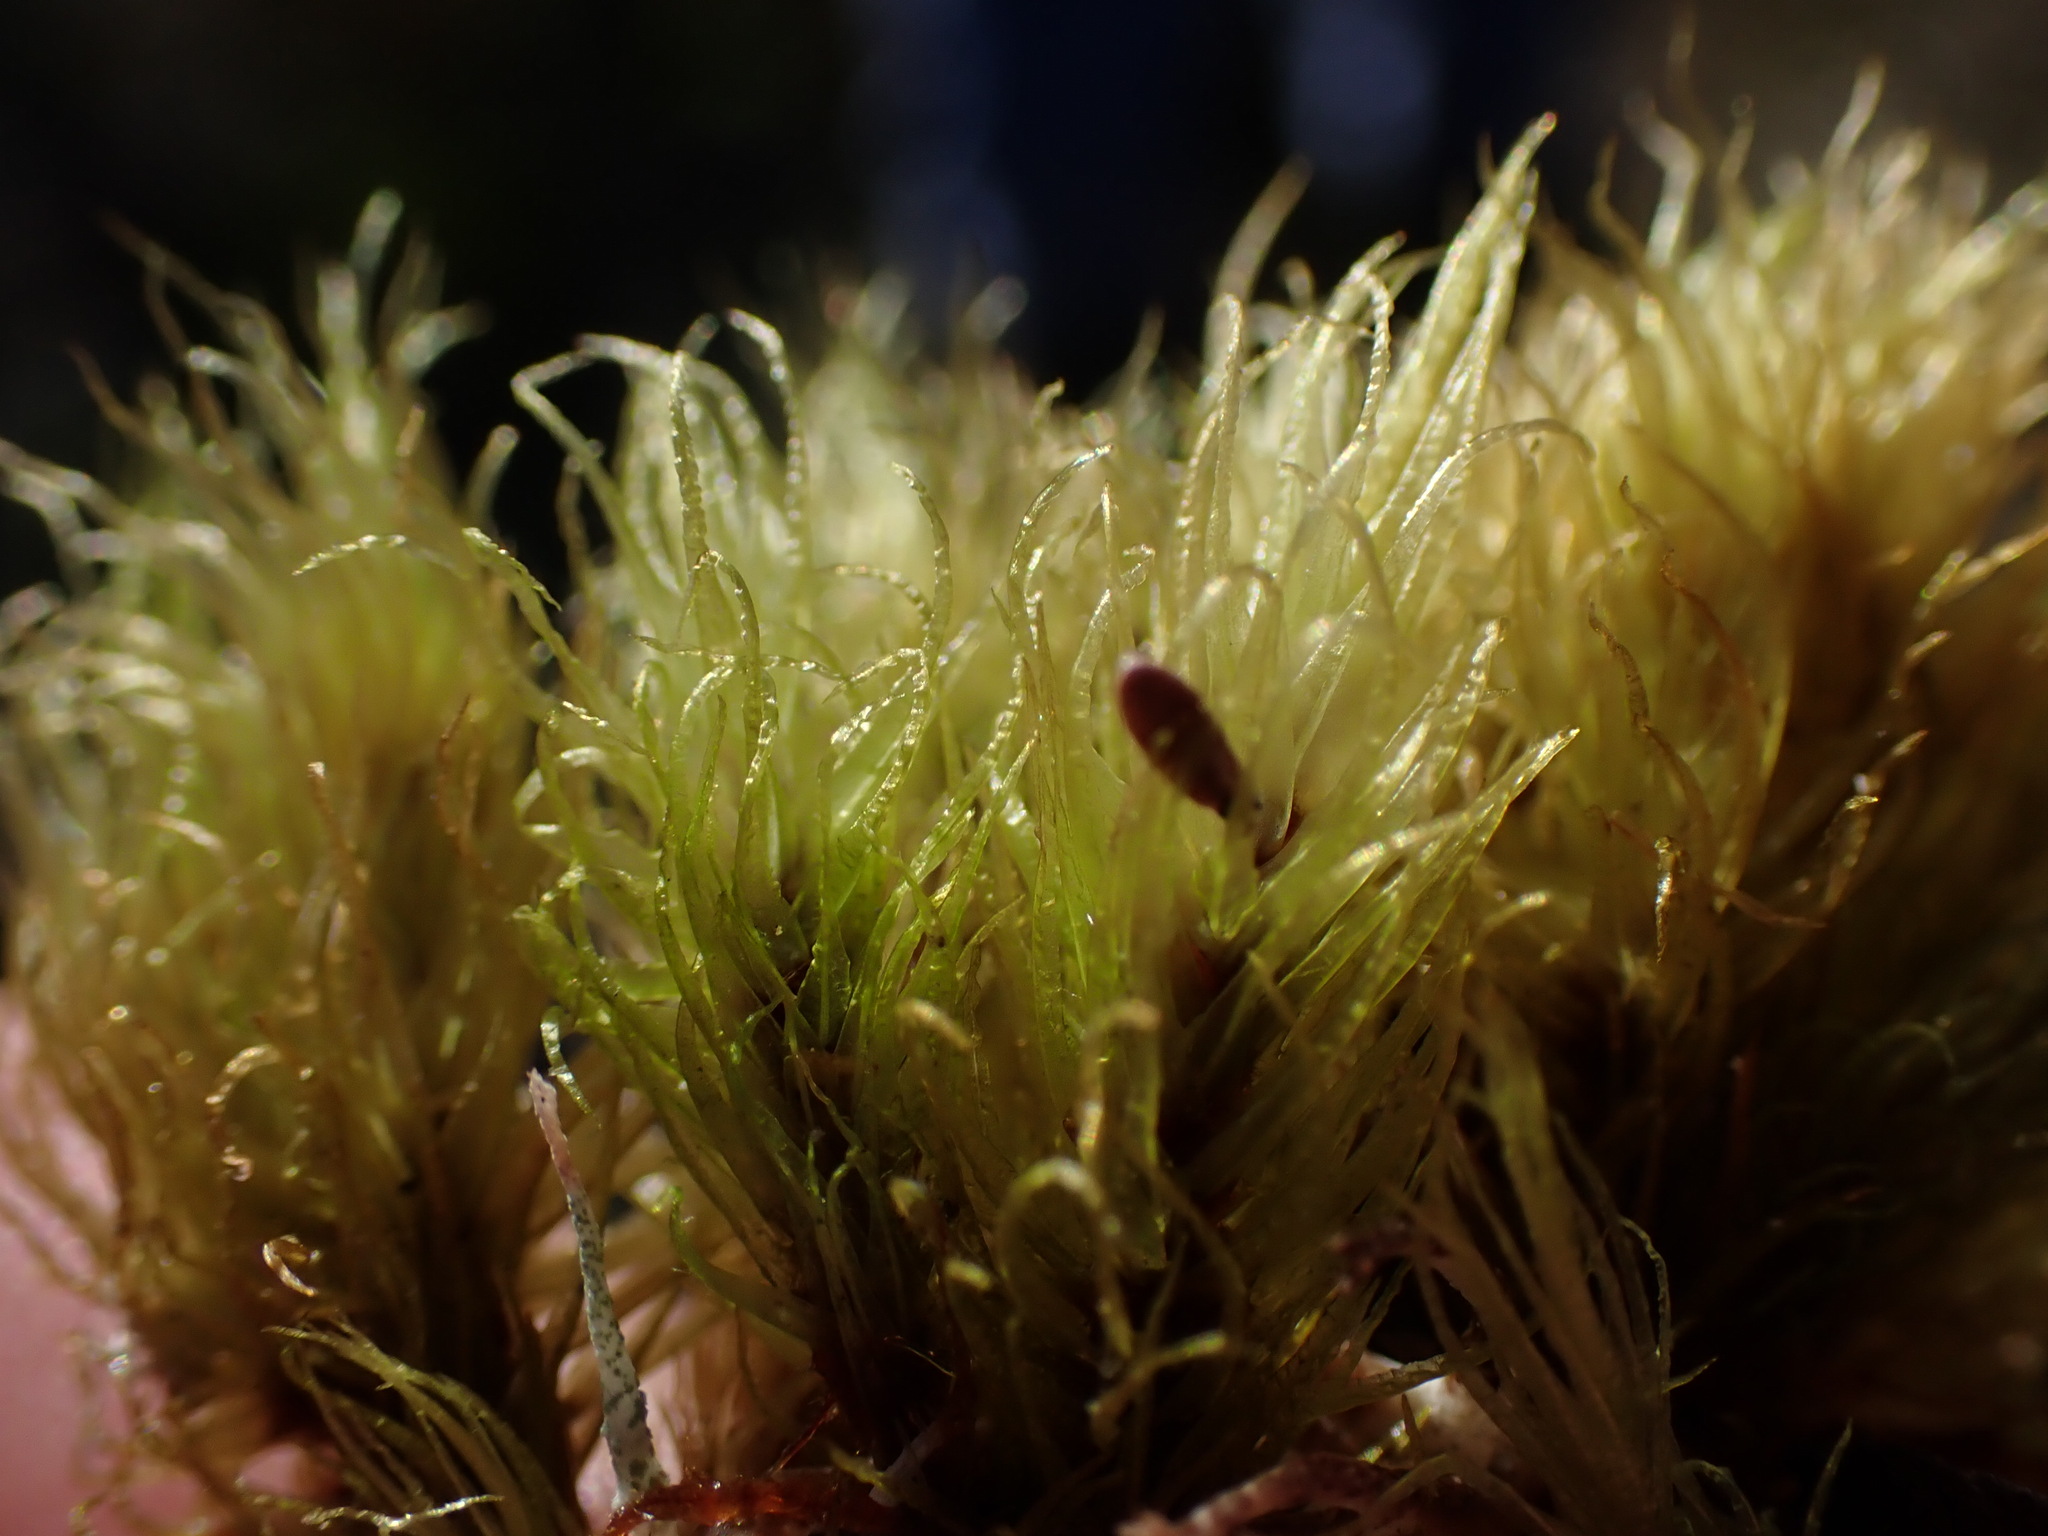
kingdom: Plantae
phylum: Bryophyta
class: Bryopsida
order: Dicranales
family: Dicranaceae
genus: Dicranum
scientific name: Dicranum undulatum
